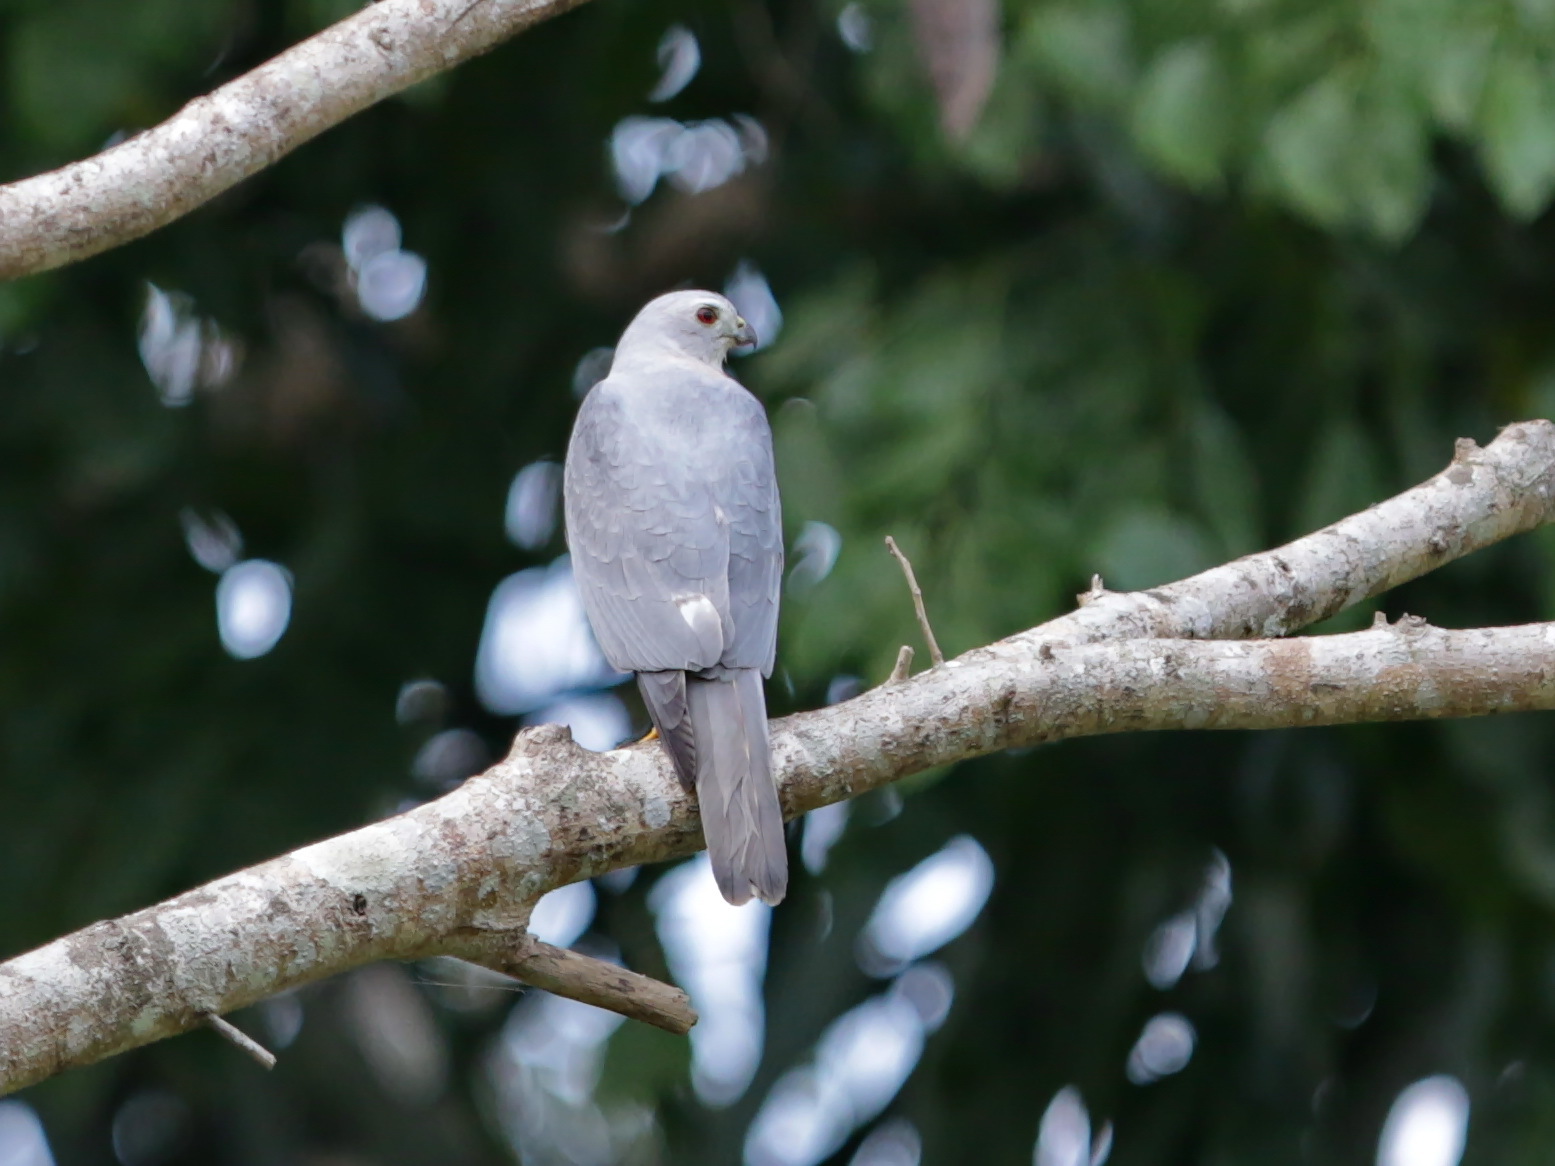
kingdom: Animalia
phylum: Chordata
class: Aves
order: Accipitriformes
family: Accipitridae
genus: Accipiter
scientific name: Accipiter badius
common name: Shikra
